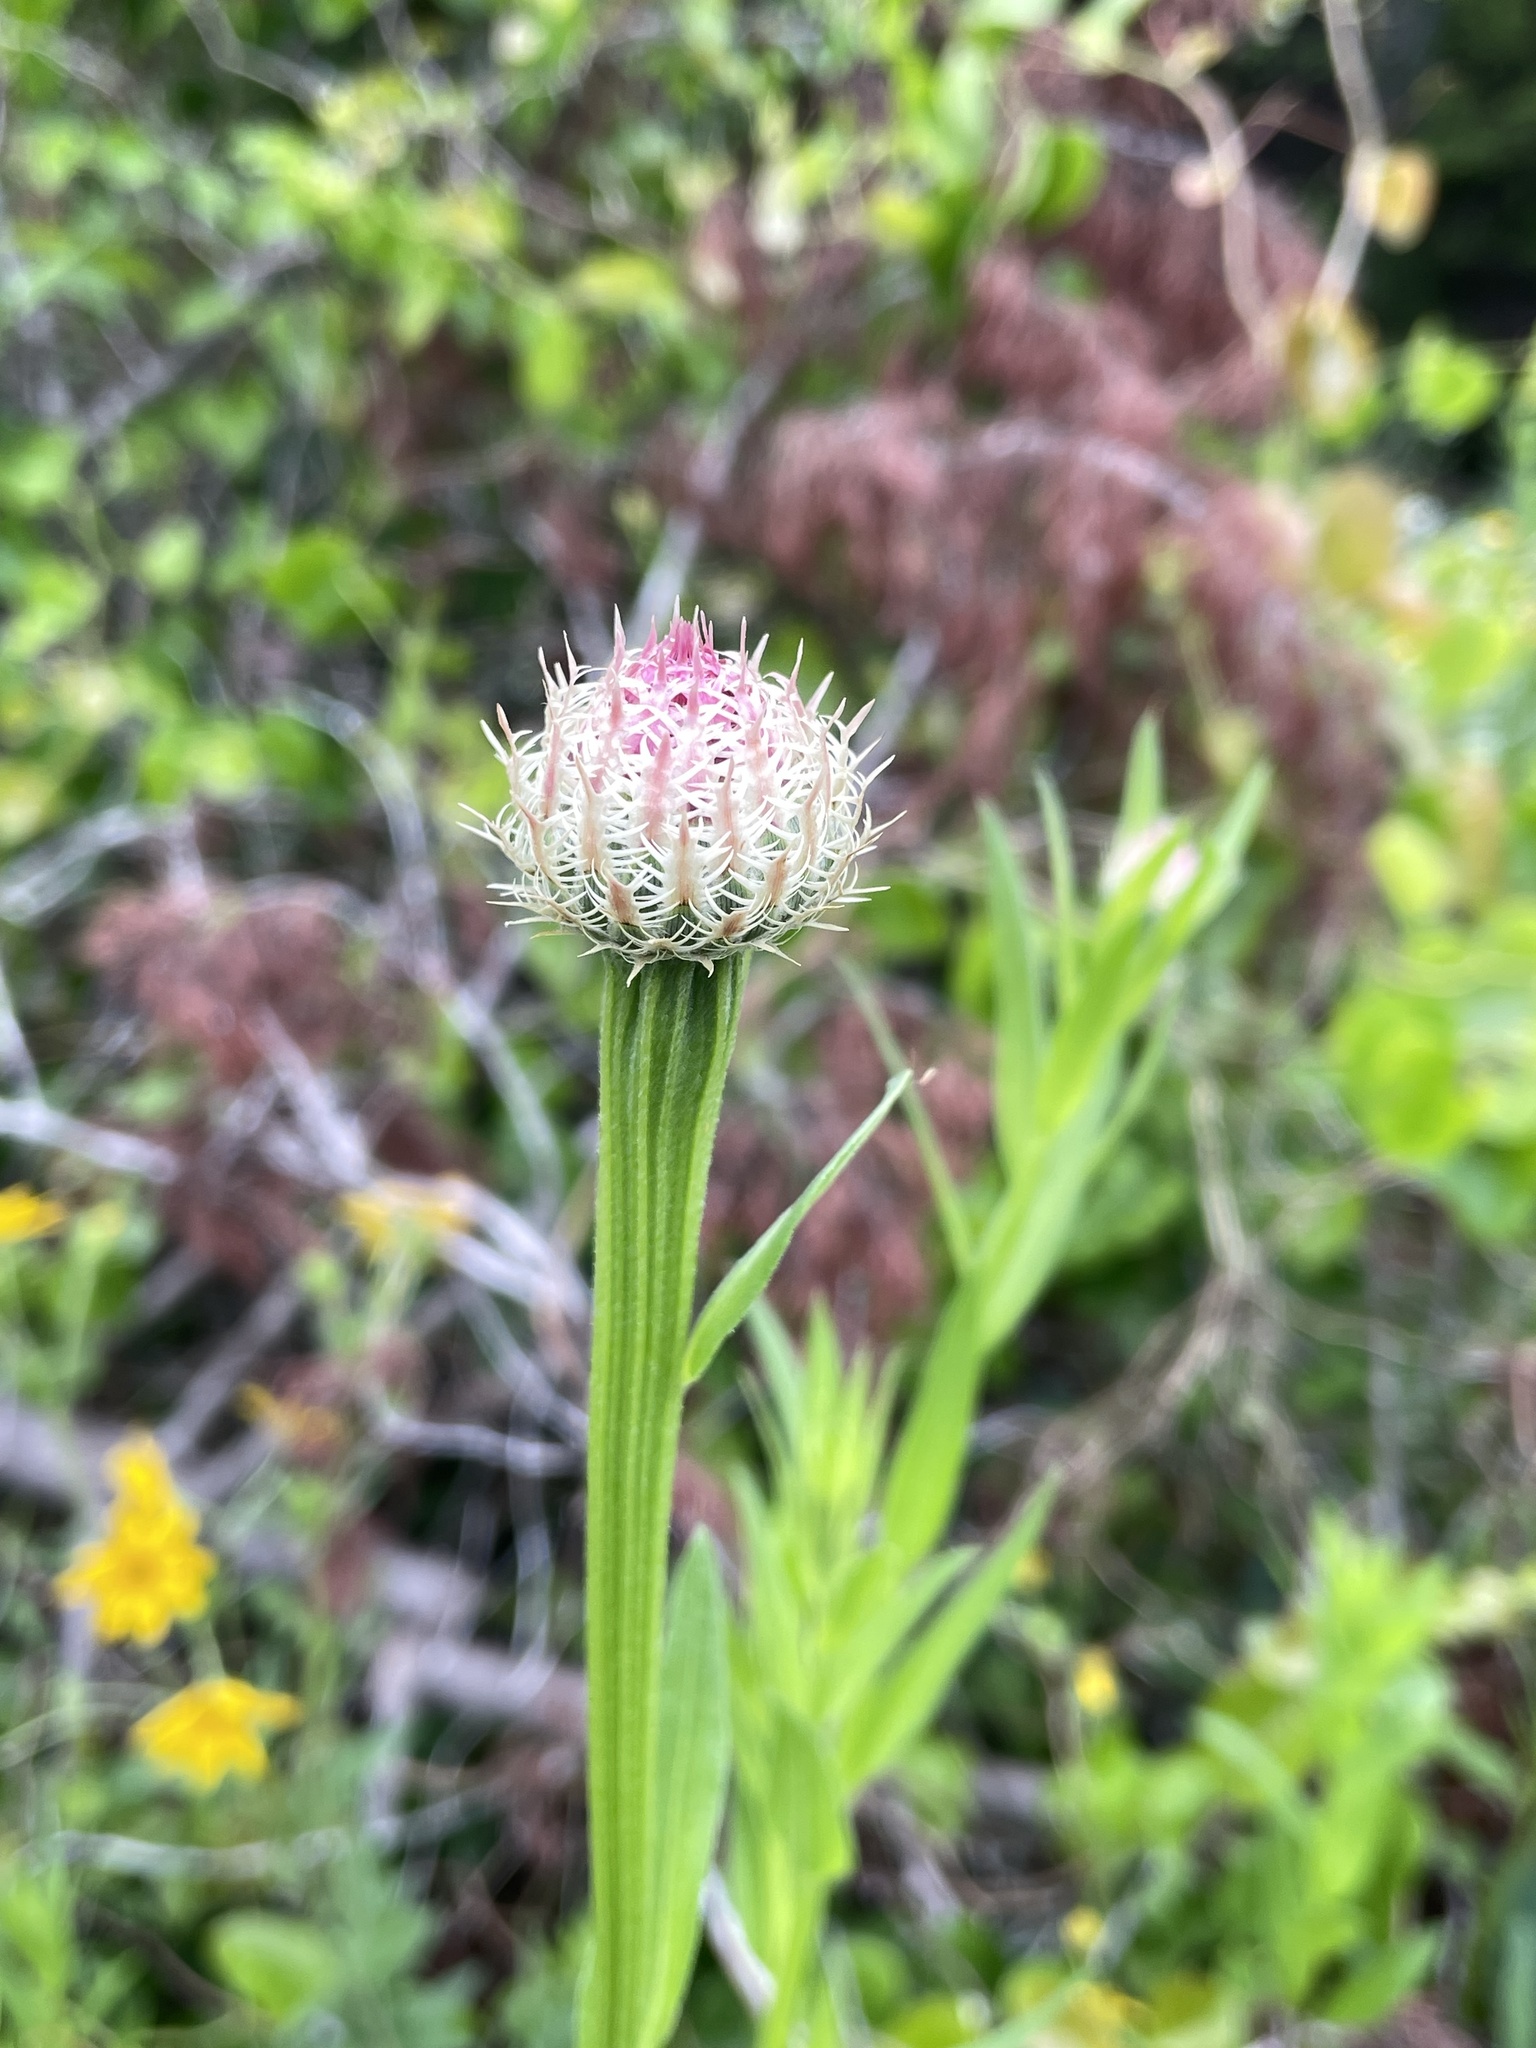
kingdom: Plantae
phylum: Tracheophyta
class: Magnoliopsida
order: Asterales
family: Asteraceae
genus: Plectocephalus
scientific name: Plectocephalus americanus
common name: American basket-flower
